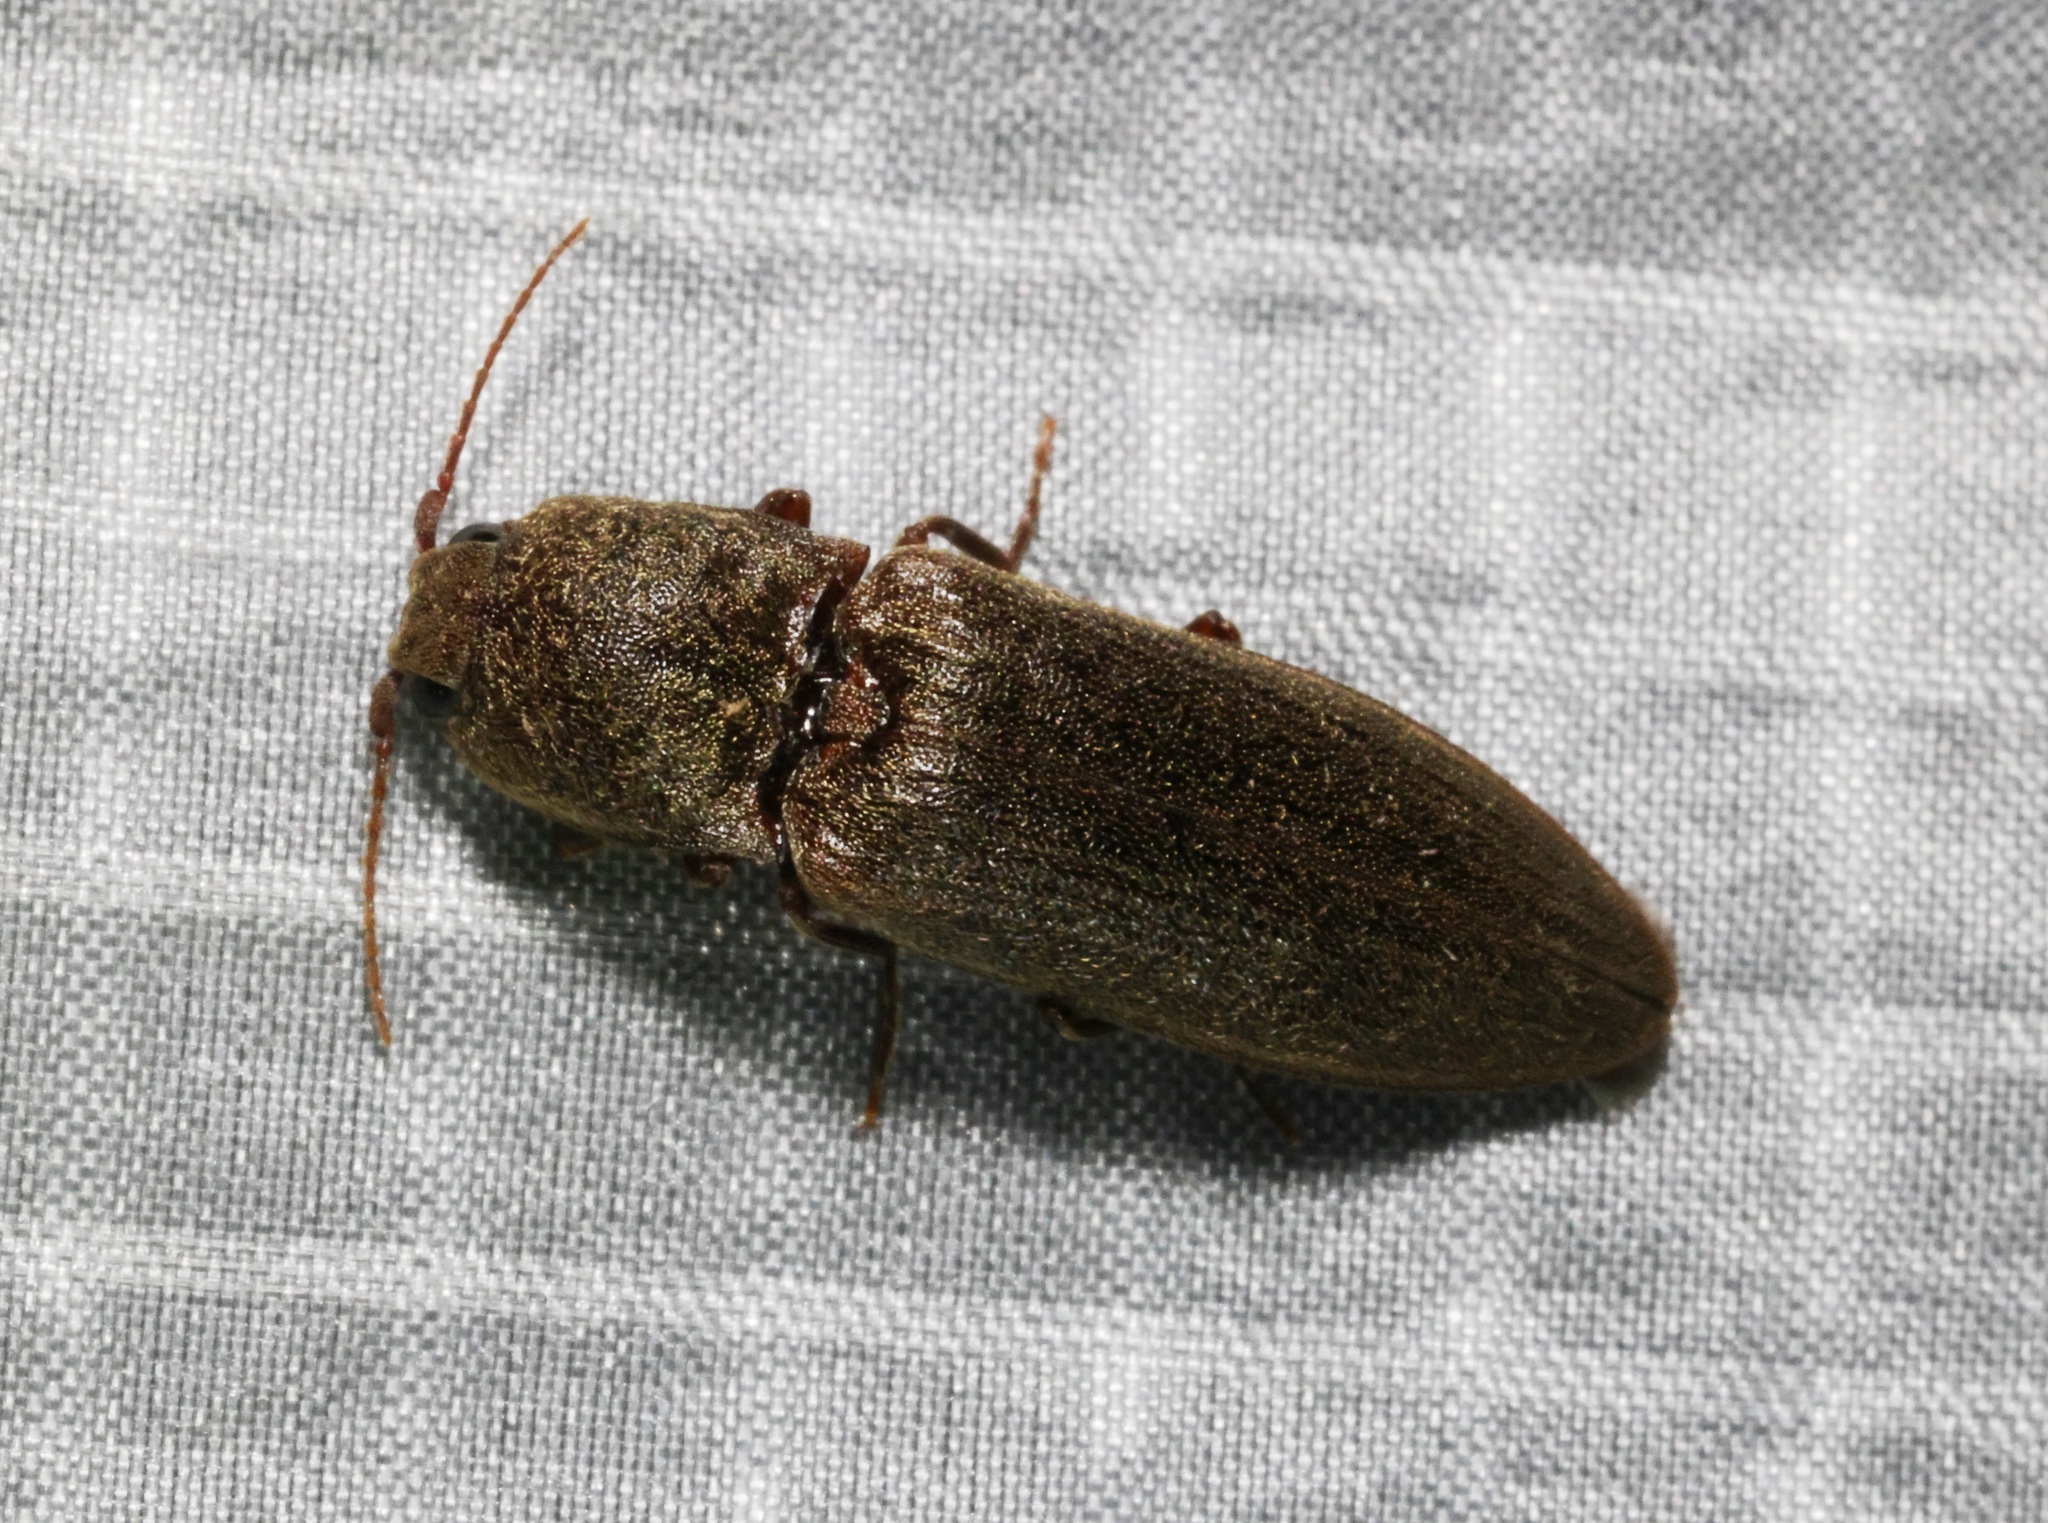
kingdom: Animalia
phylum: Arthropoda
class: Insecta
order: Coleoptera
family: Elateridae
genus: Ludioschema
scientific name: Ludioschema
